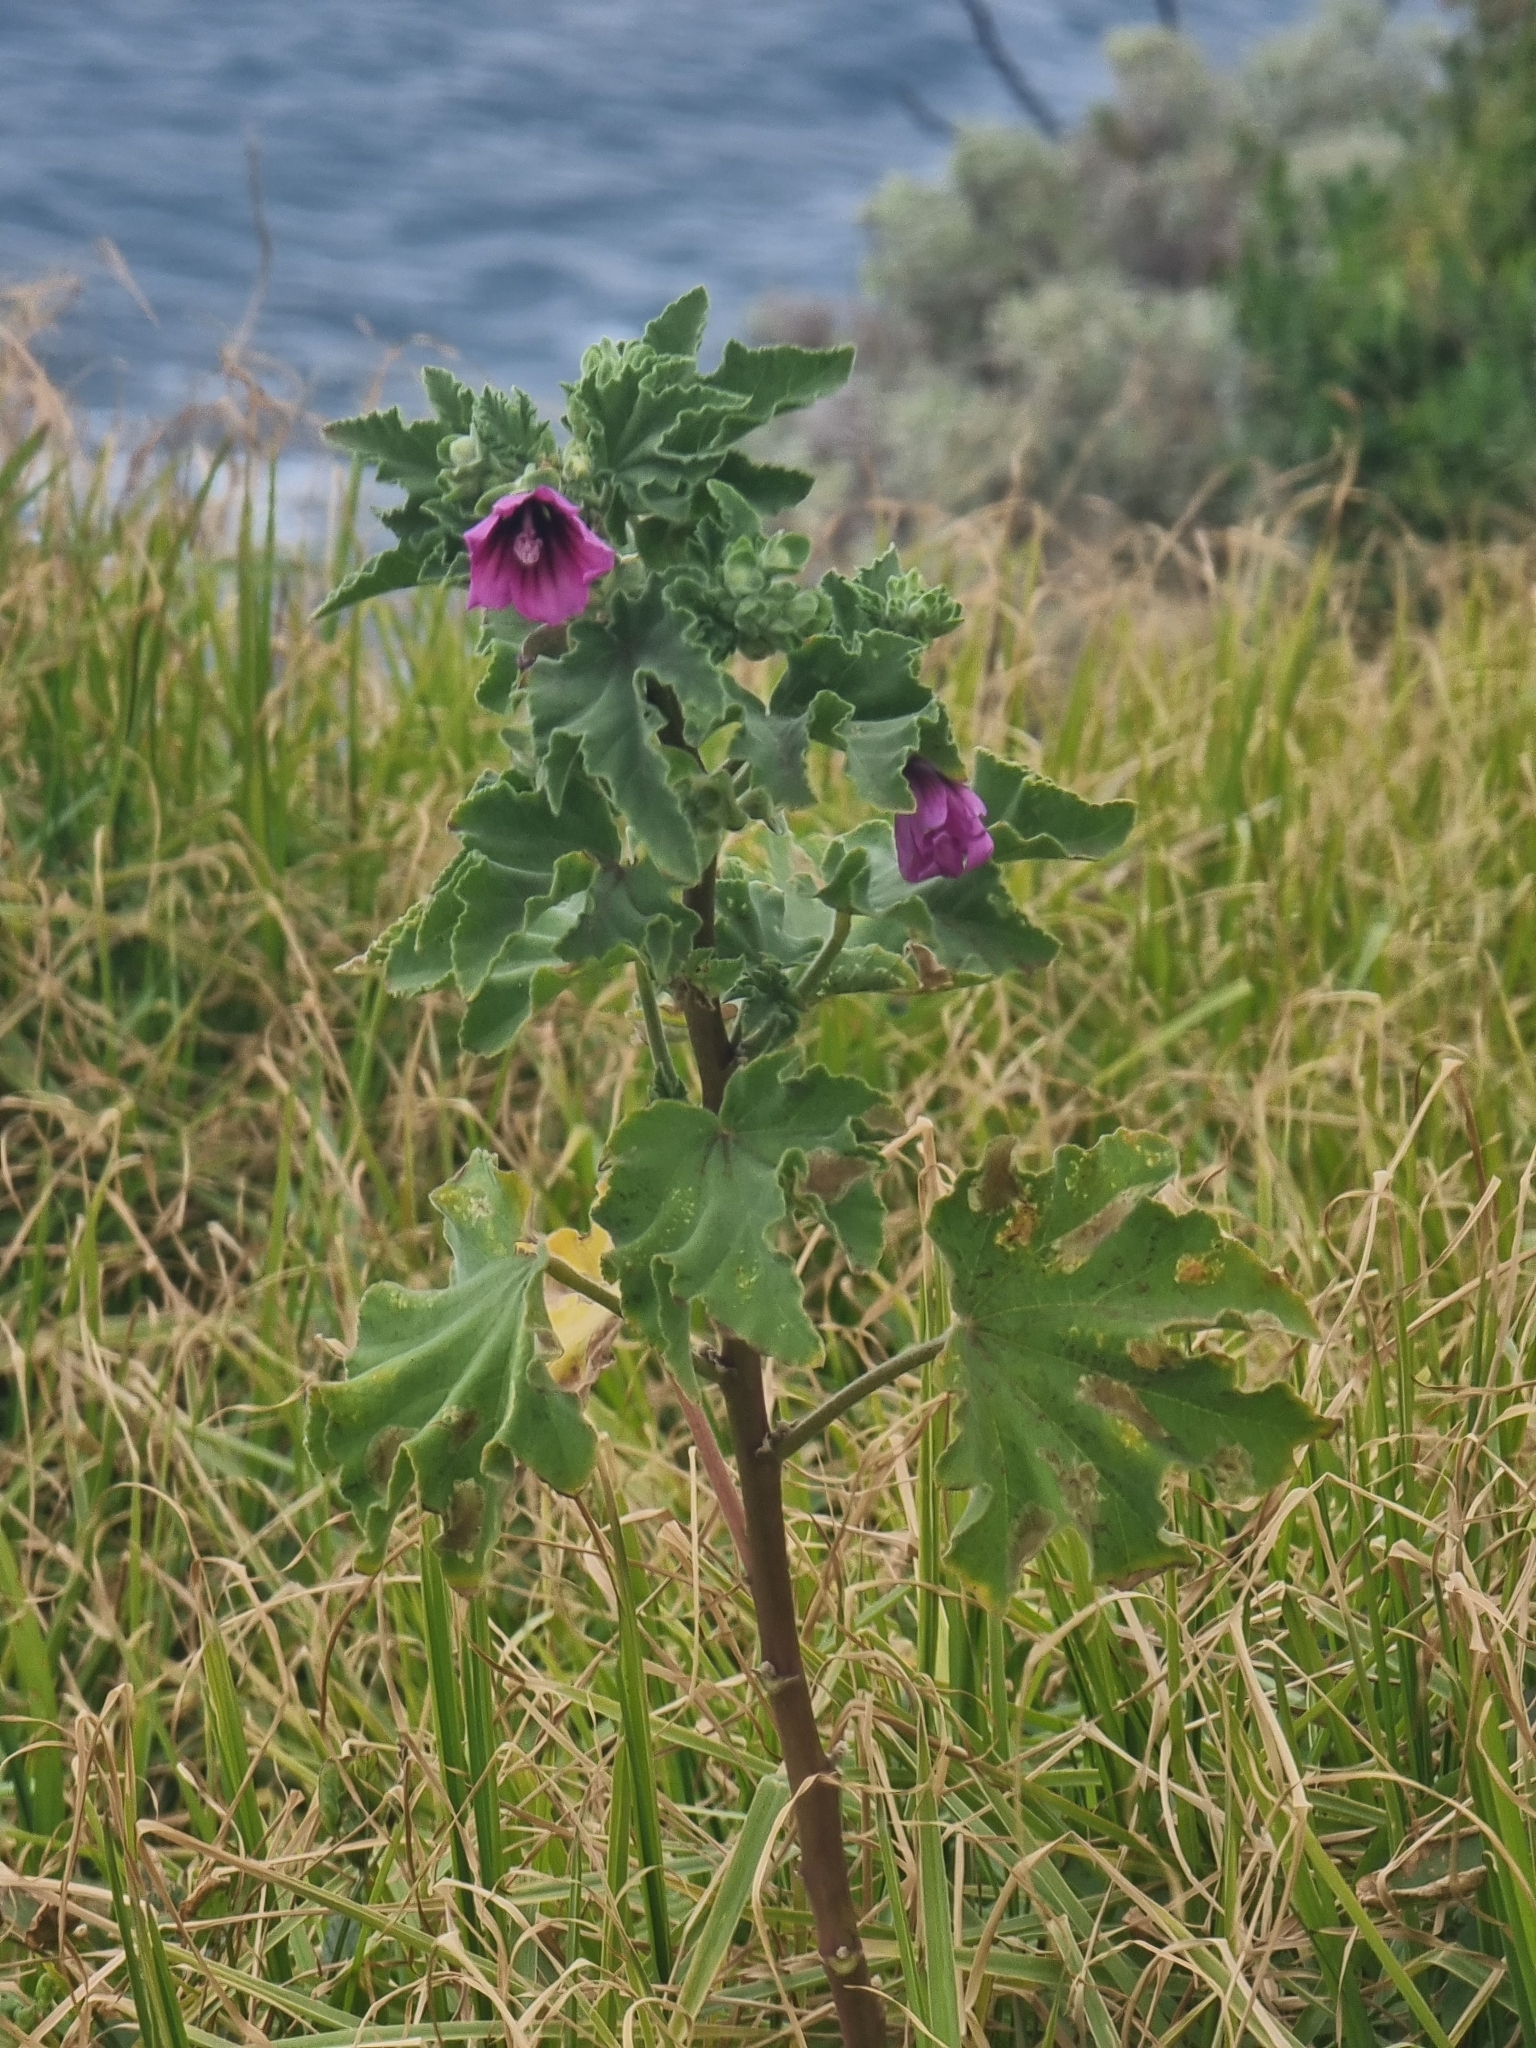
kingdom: Plantae
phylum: Tracheophyta
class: Magnoliopsida
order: Malvales
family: Malvaceae
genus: Malva
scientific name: Malva arborea
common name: Tree mallow
